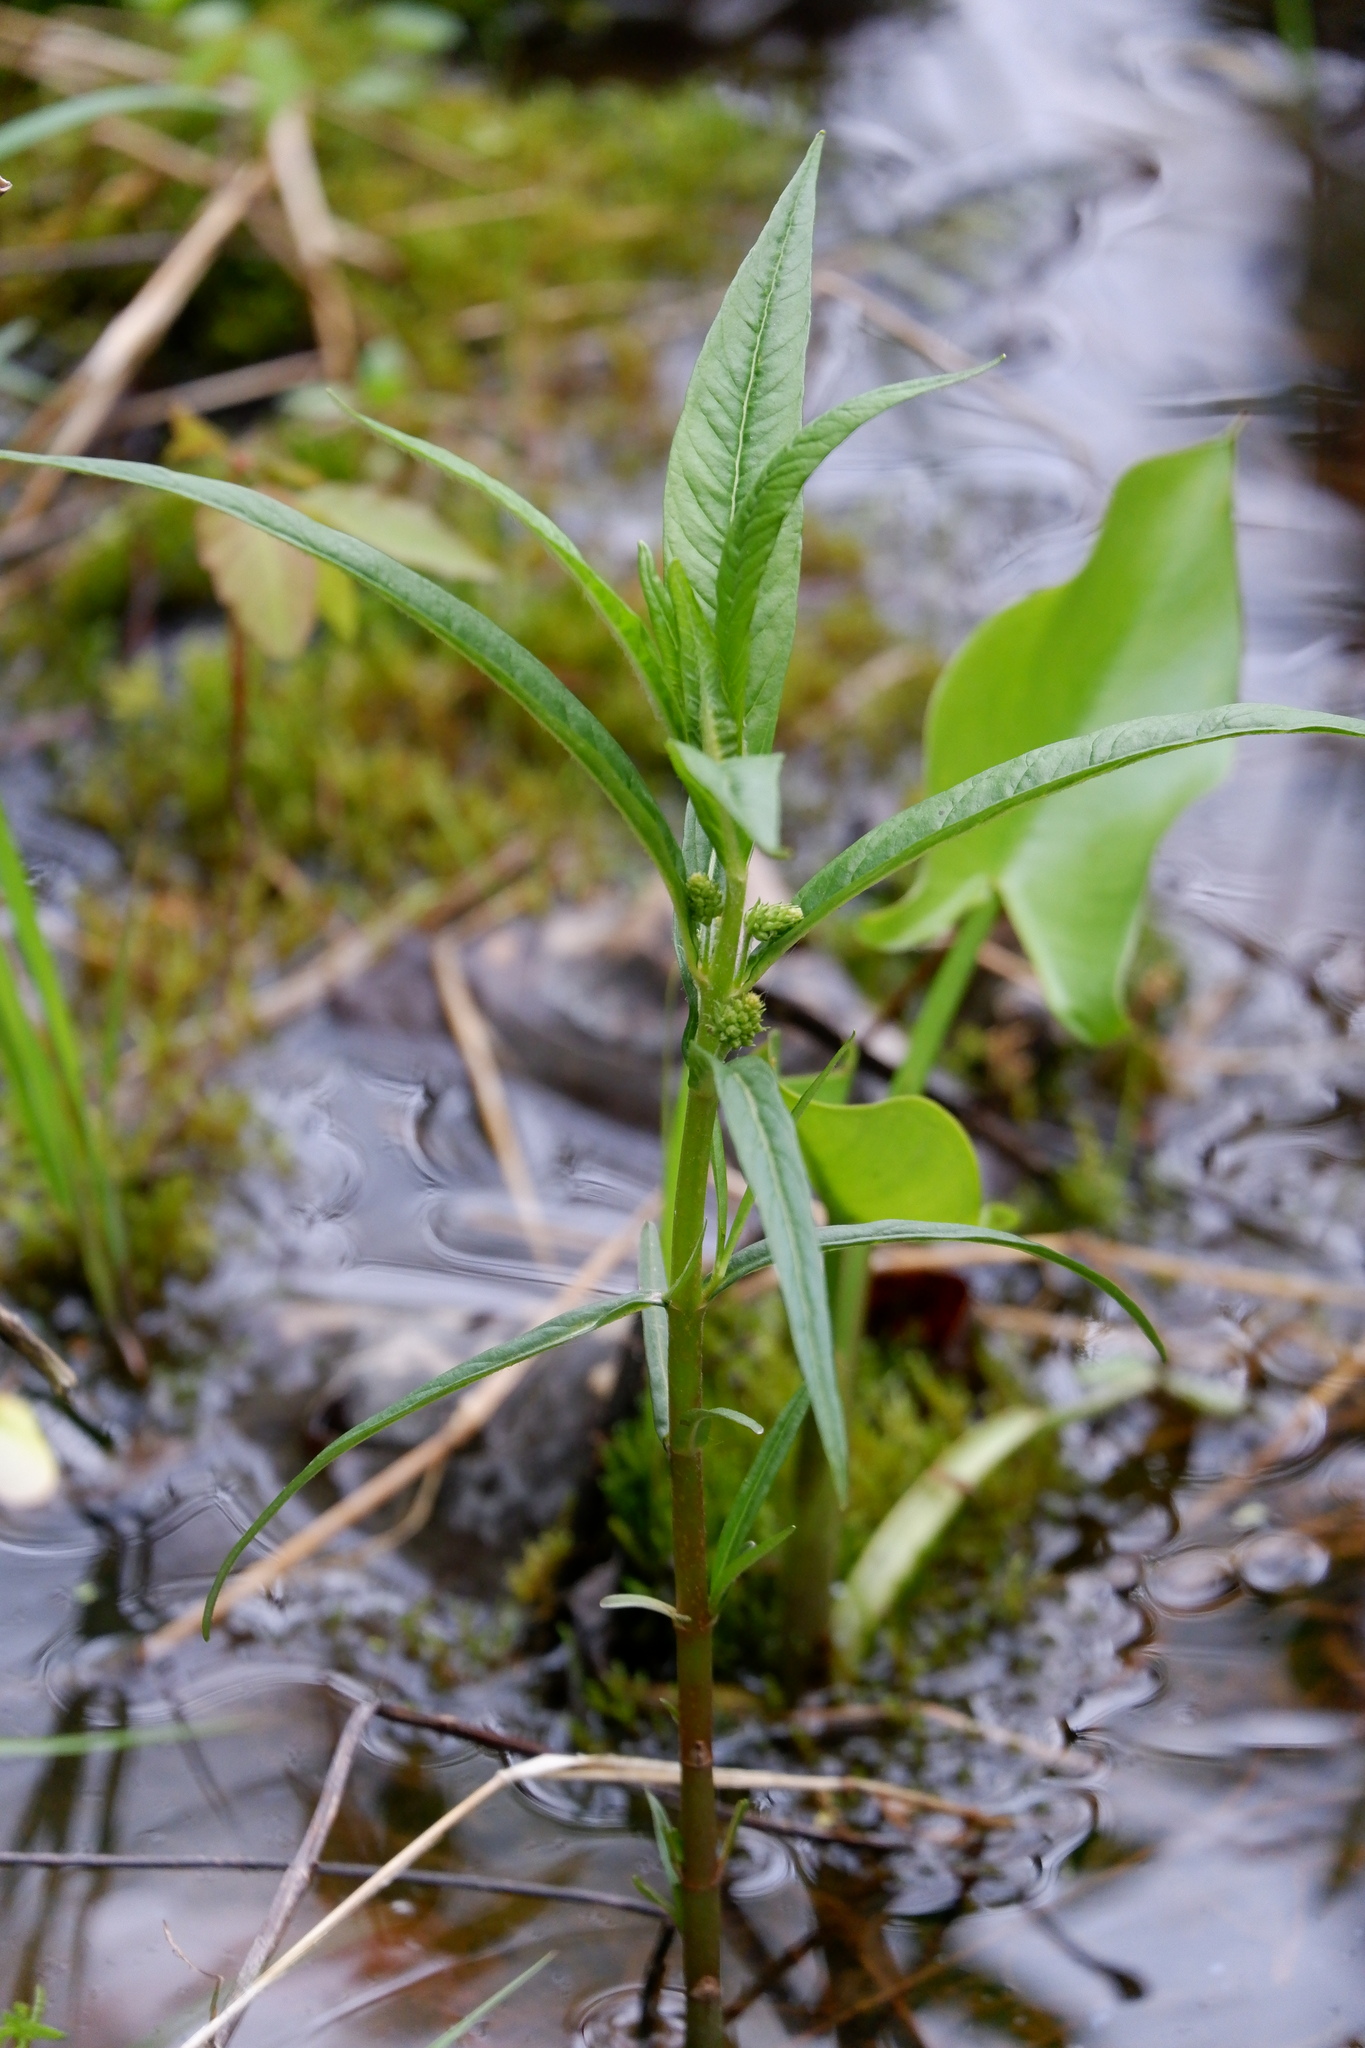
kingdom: Plantae
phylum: Tracheophyta
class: Magnoliopsida
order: Ericales
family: Primulaceae
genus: Lysimachia
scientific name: Lysimachia thyrsiflora
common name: Tufted loosestrife
